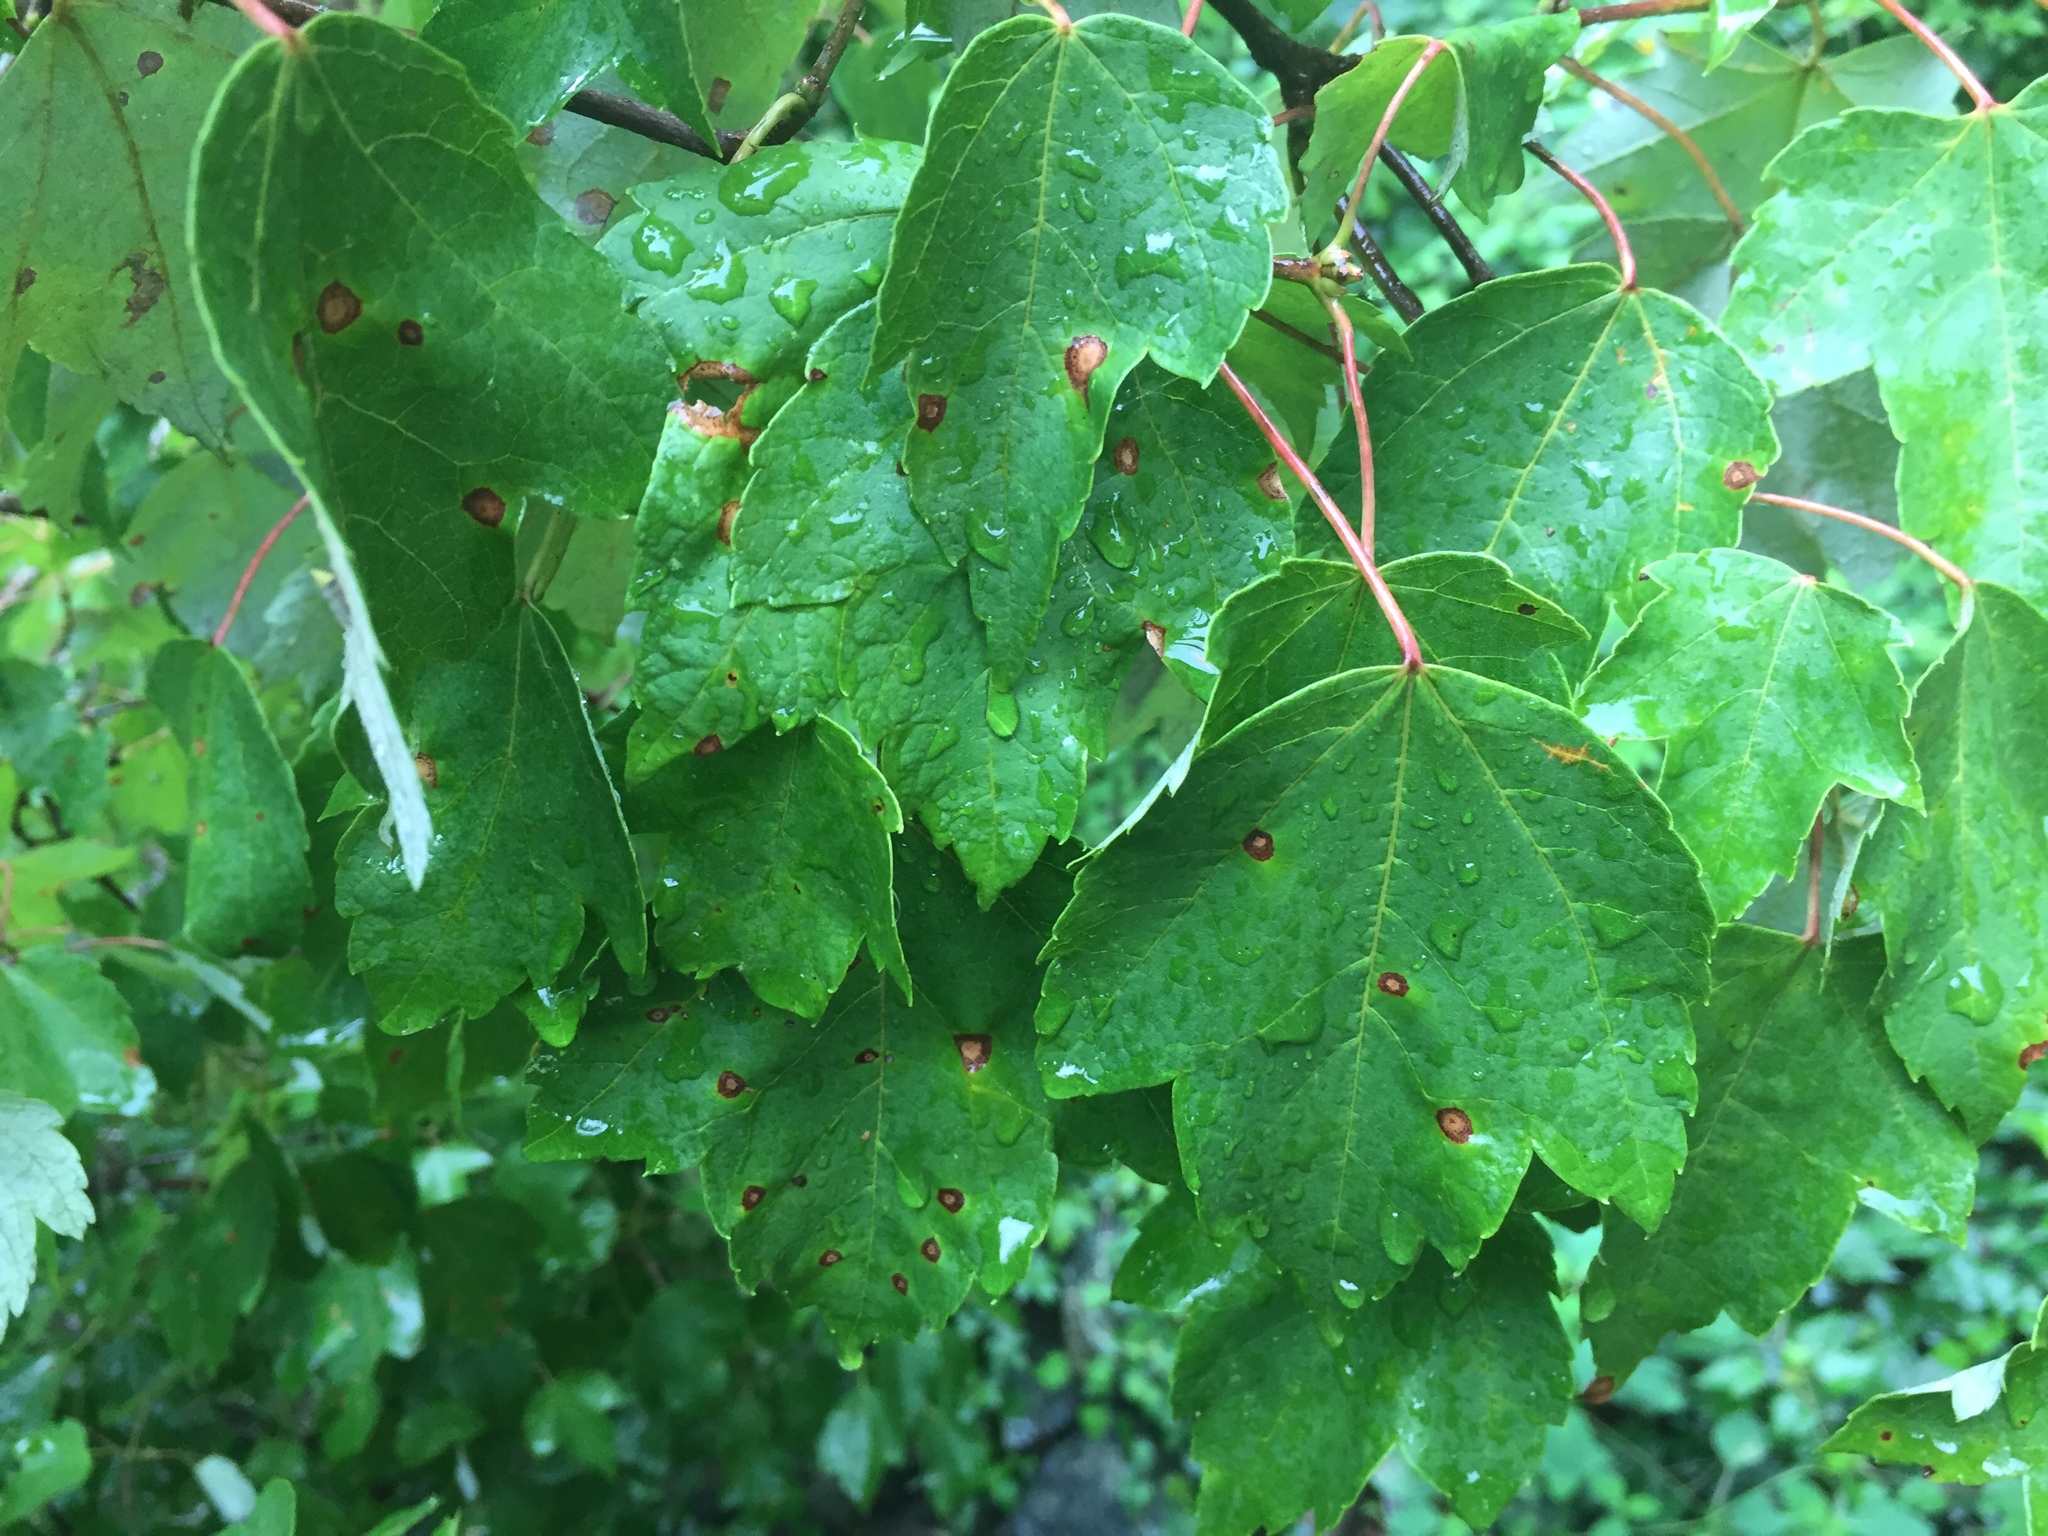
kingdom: Plantae
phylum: Tracheophyta
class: Magnoliopsida
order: Sapindales
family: Sapindaceae
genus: Acer
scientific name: Acer rubrum
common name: Red maple
